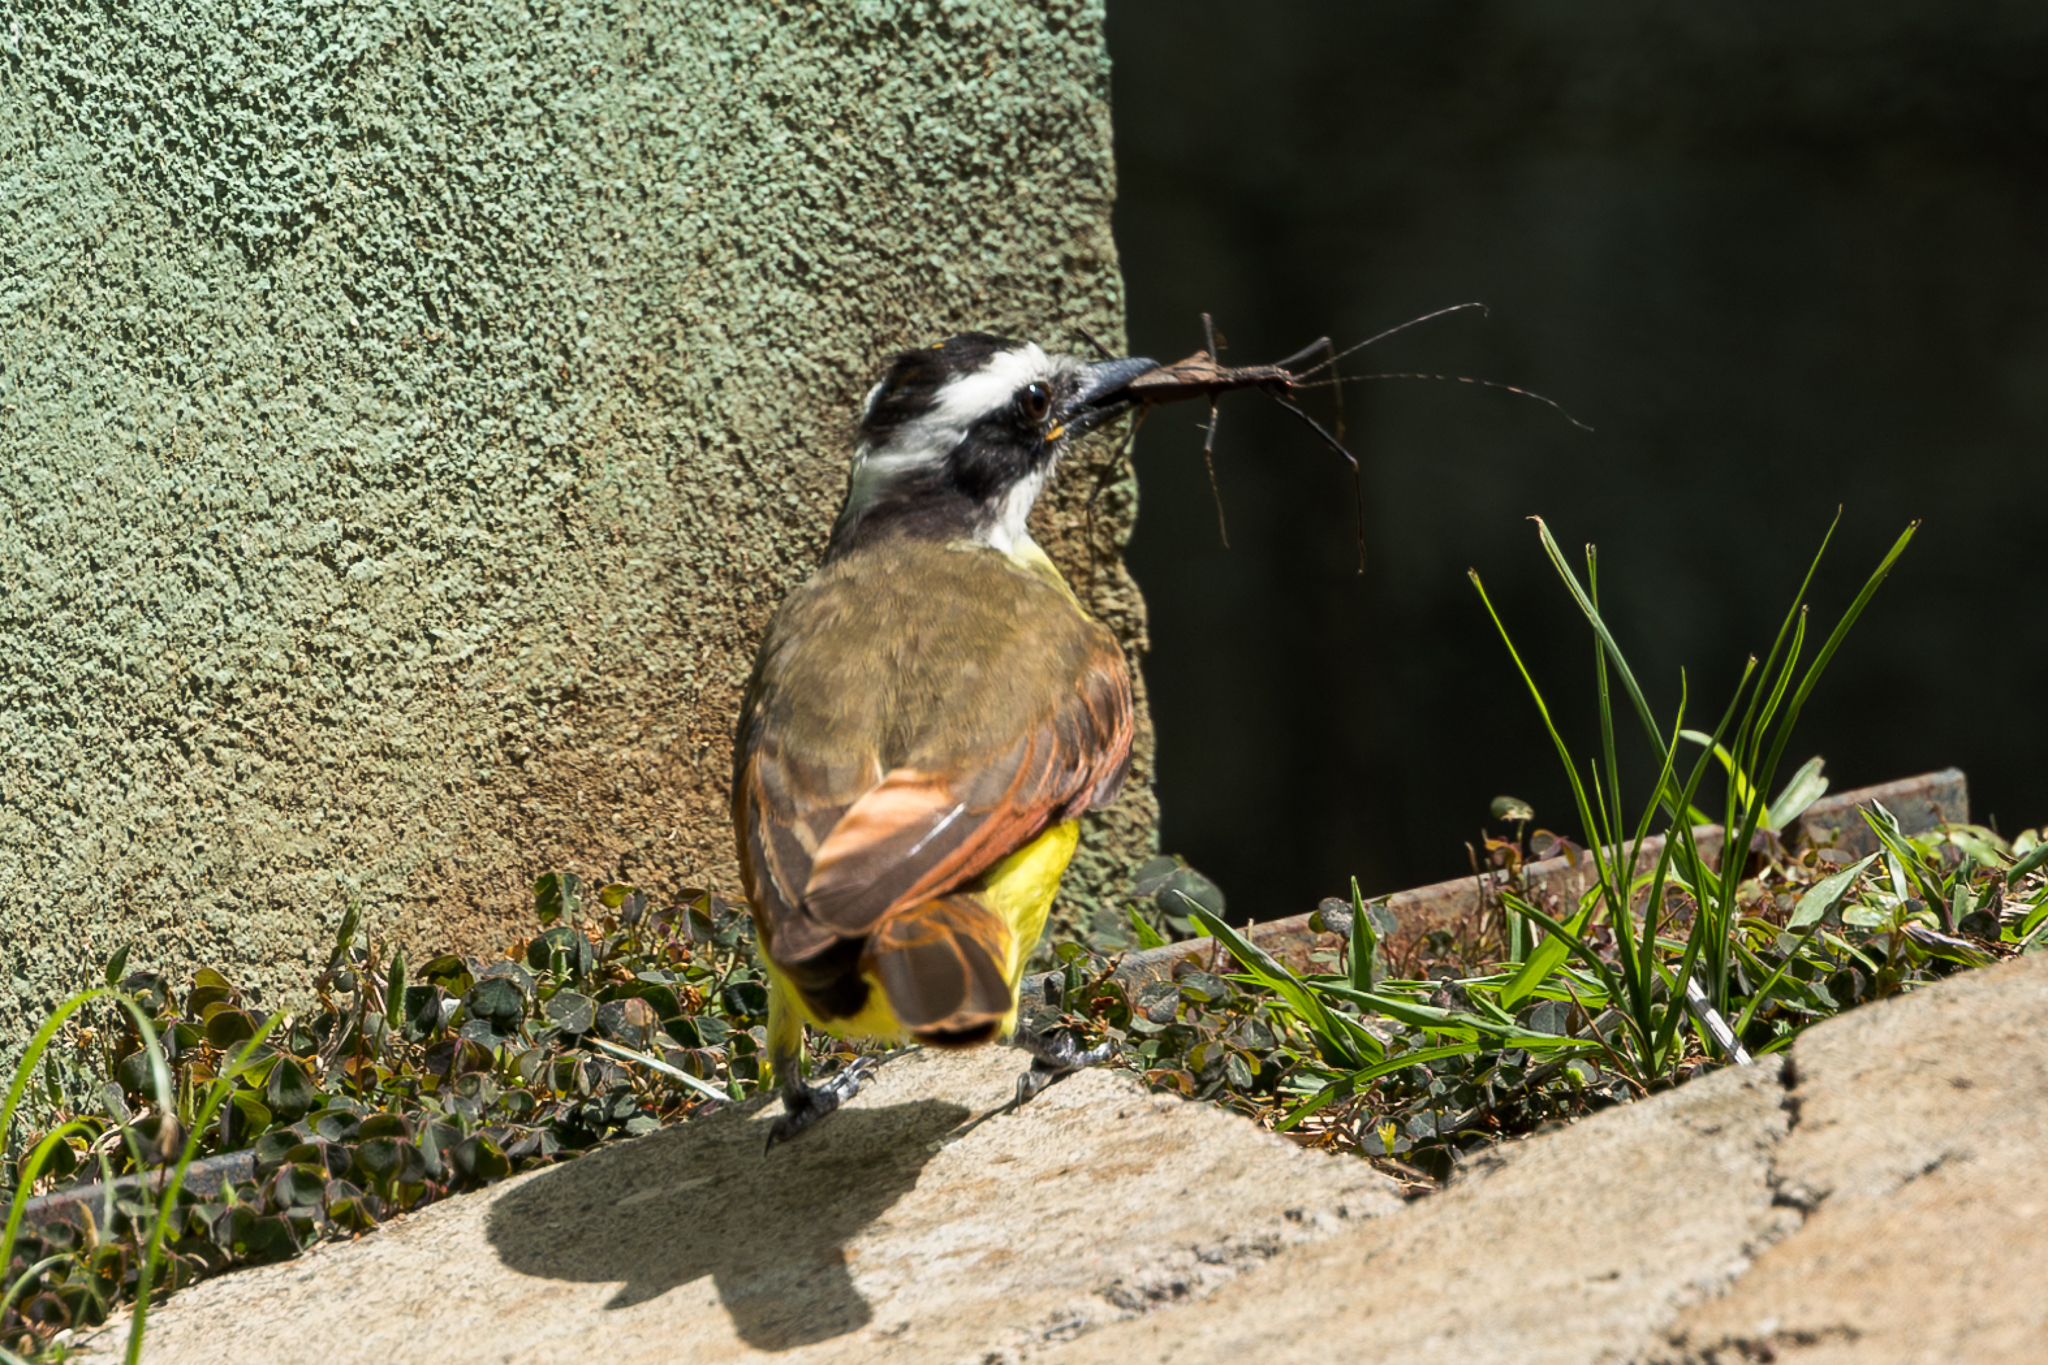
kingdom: Animalia
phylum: Chordata
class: Aves
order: Passeriformes
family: Tyrannidae
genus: Pitangus
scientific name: Pitangus sulphuratus
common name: Great kiskadee
